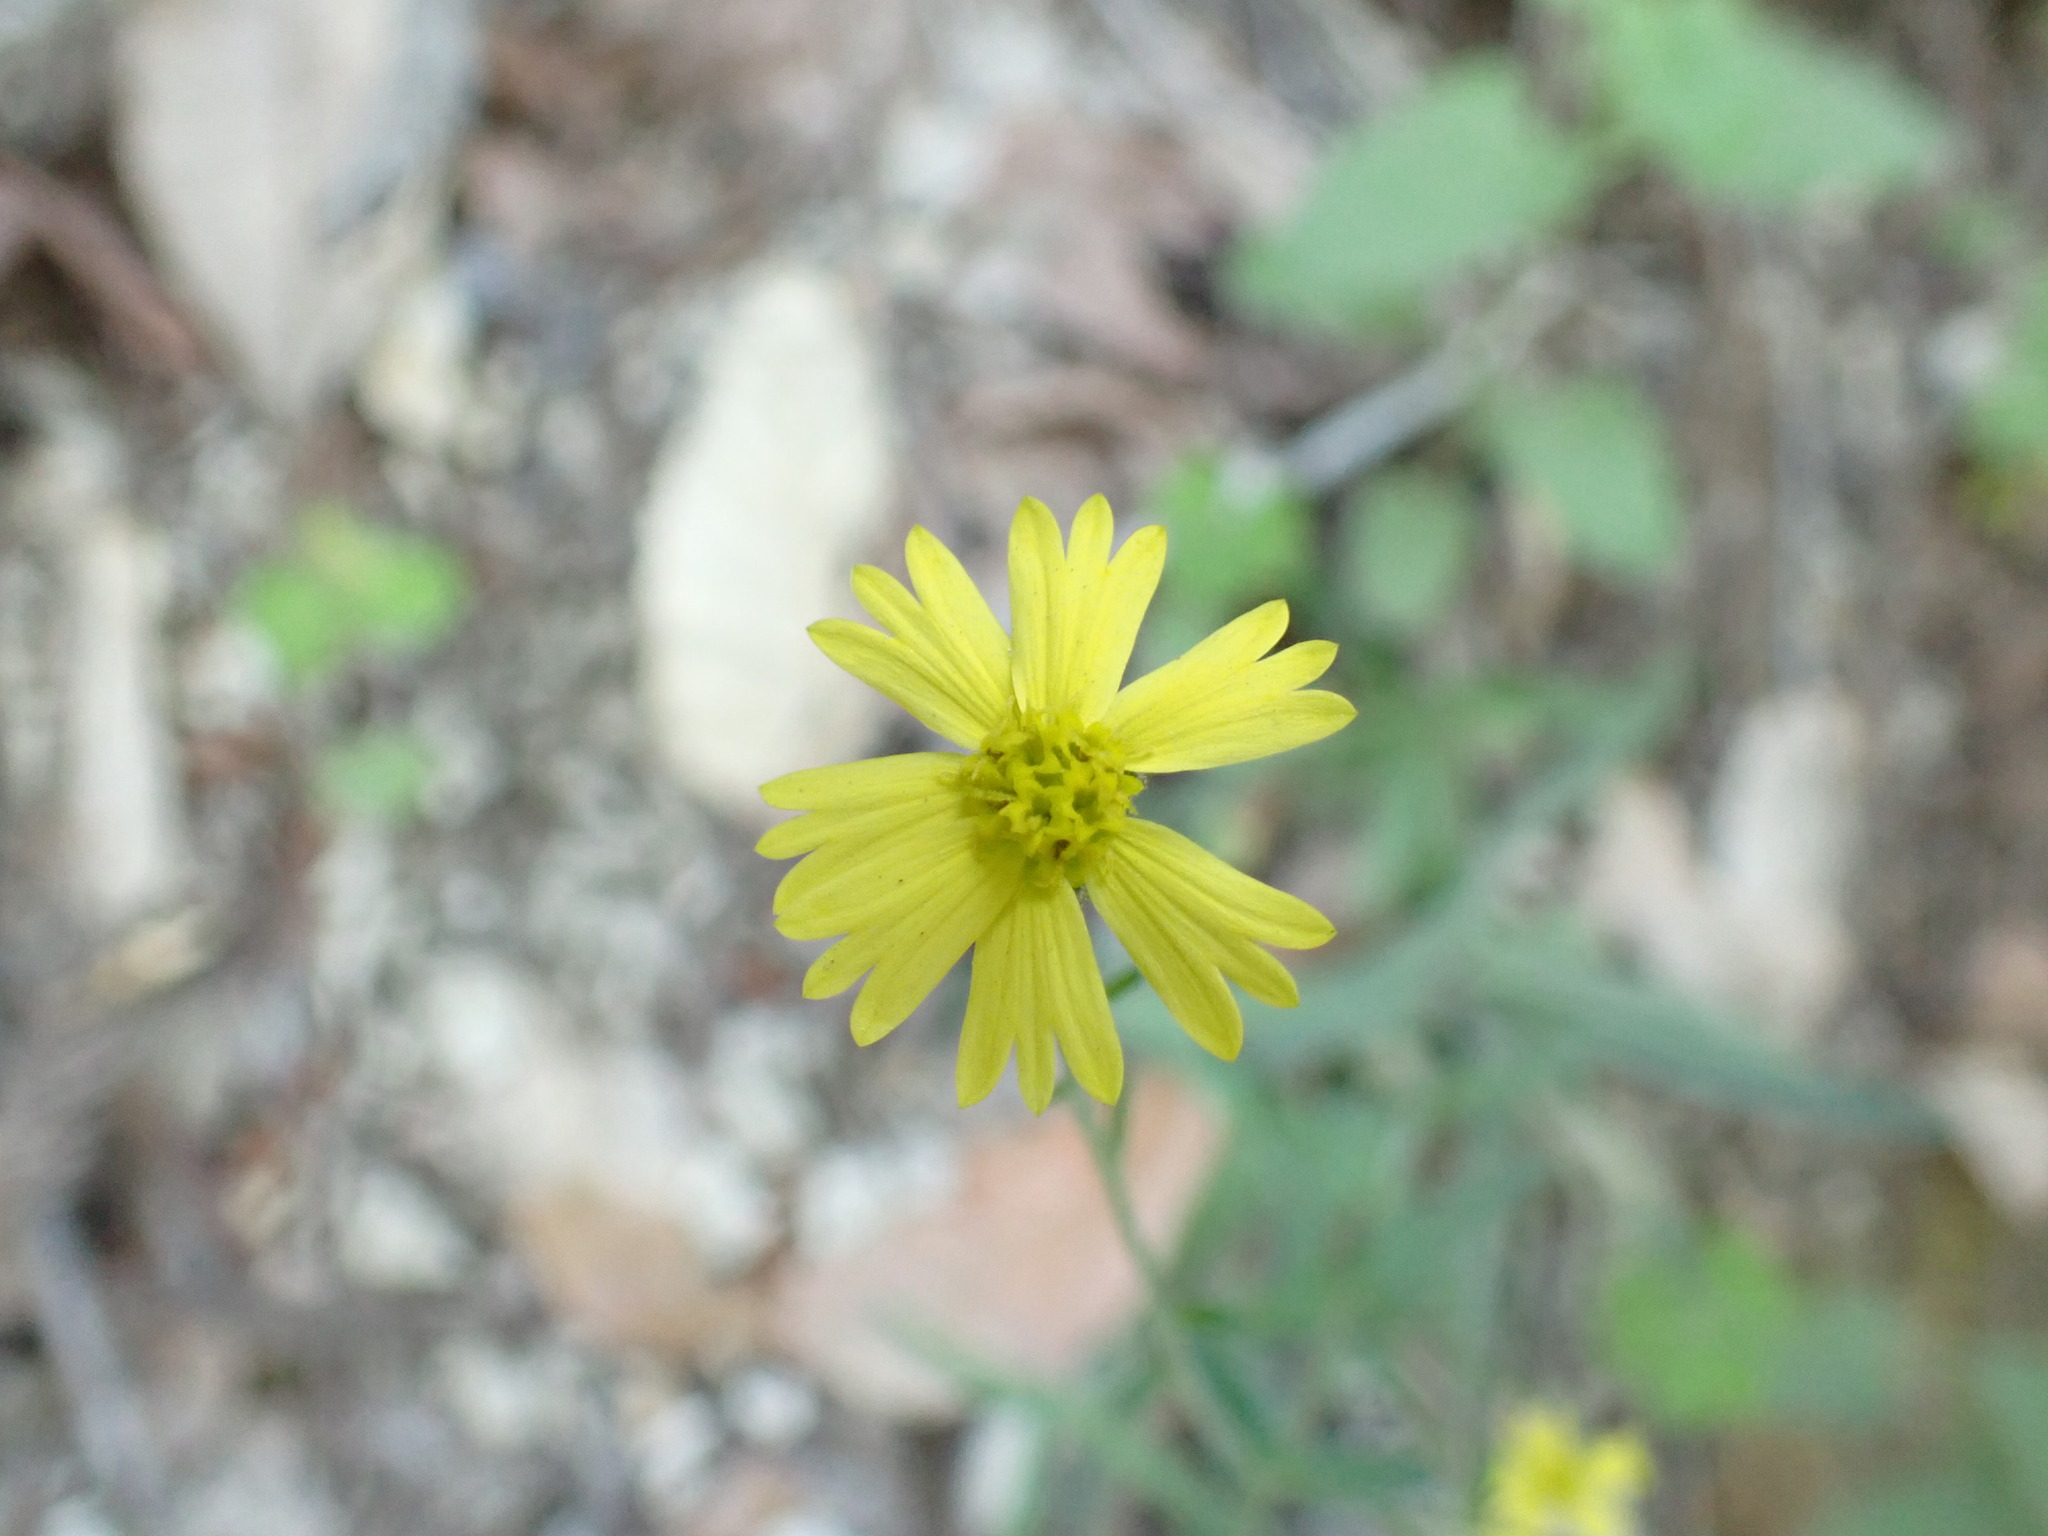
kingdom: Plantae
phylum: Tracheophyta
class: Magnoliopsida
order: Asterales
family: Asteraceae
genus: Anisocarpus
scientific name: Anisocarpus madioides
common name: Woodland madia
